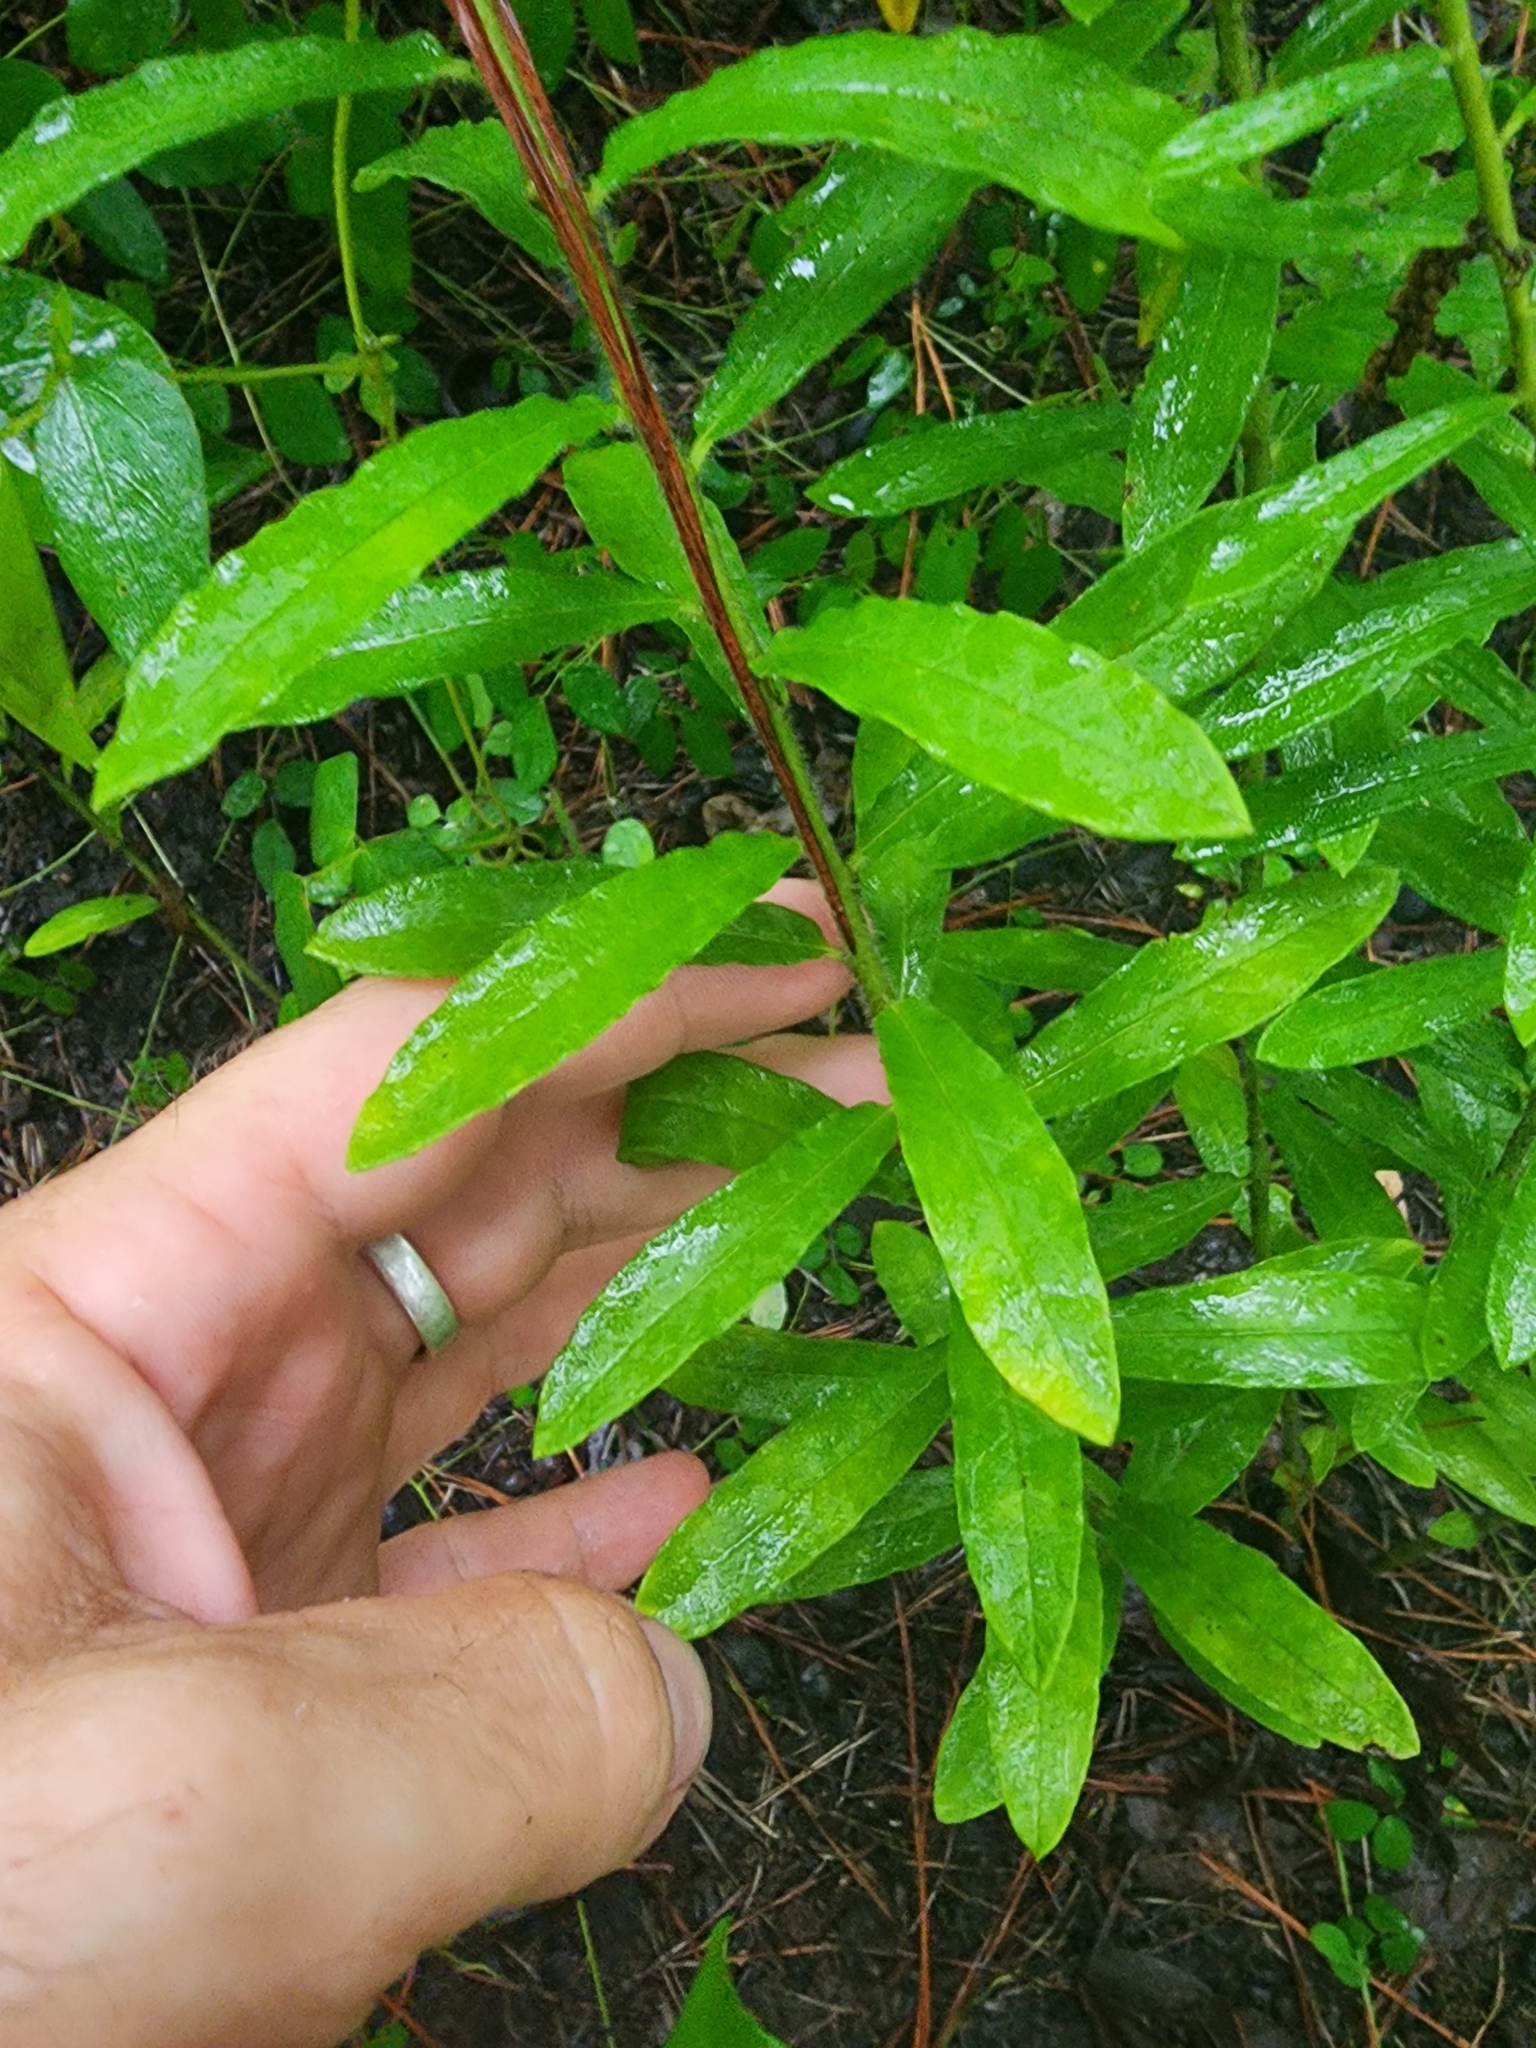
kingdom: Plantae
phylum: Tracheophyta
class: Magnoliopsida
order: Gentianales
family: Apocynaceae
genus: Asclepias
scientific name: Asclepias tuberosa
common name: Butterfly milkweed
